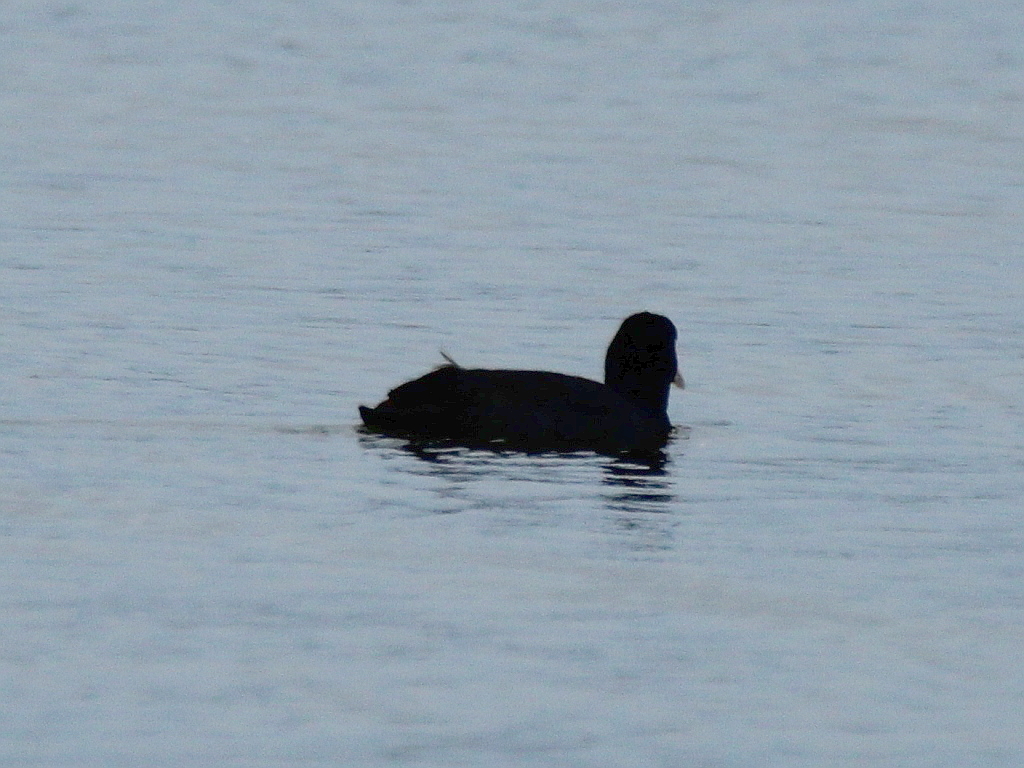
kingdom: Animalia
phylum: Chordata
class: Aves
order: Gruiformes
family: Rallidae
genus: Fulica
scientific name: Fulica atra
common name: Eurasian coot
